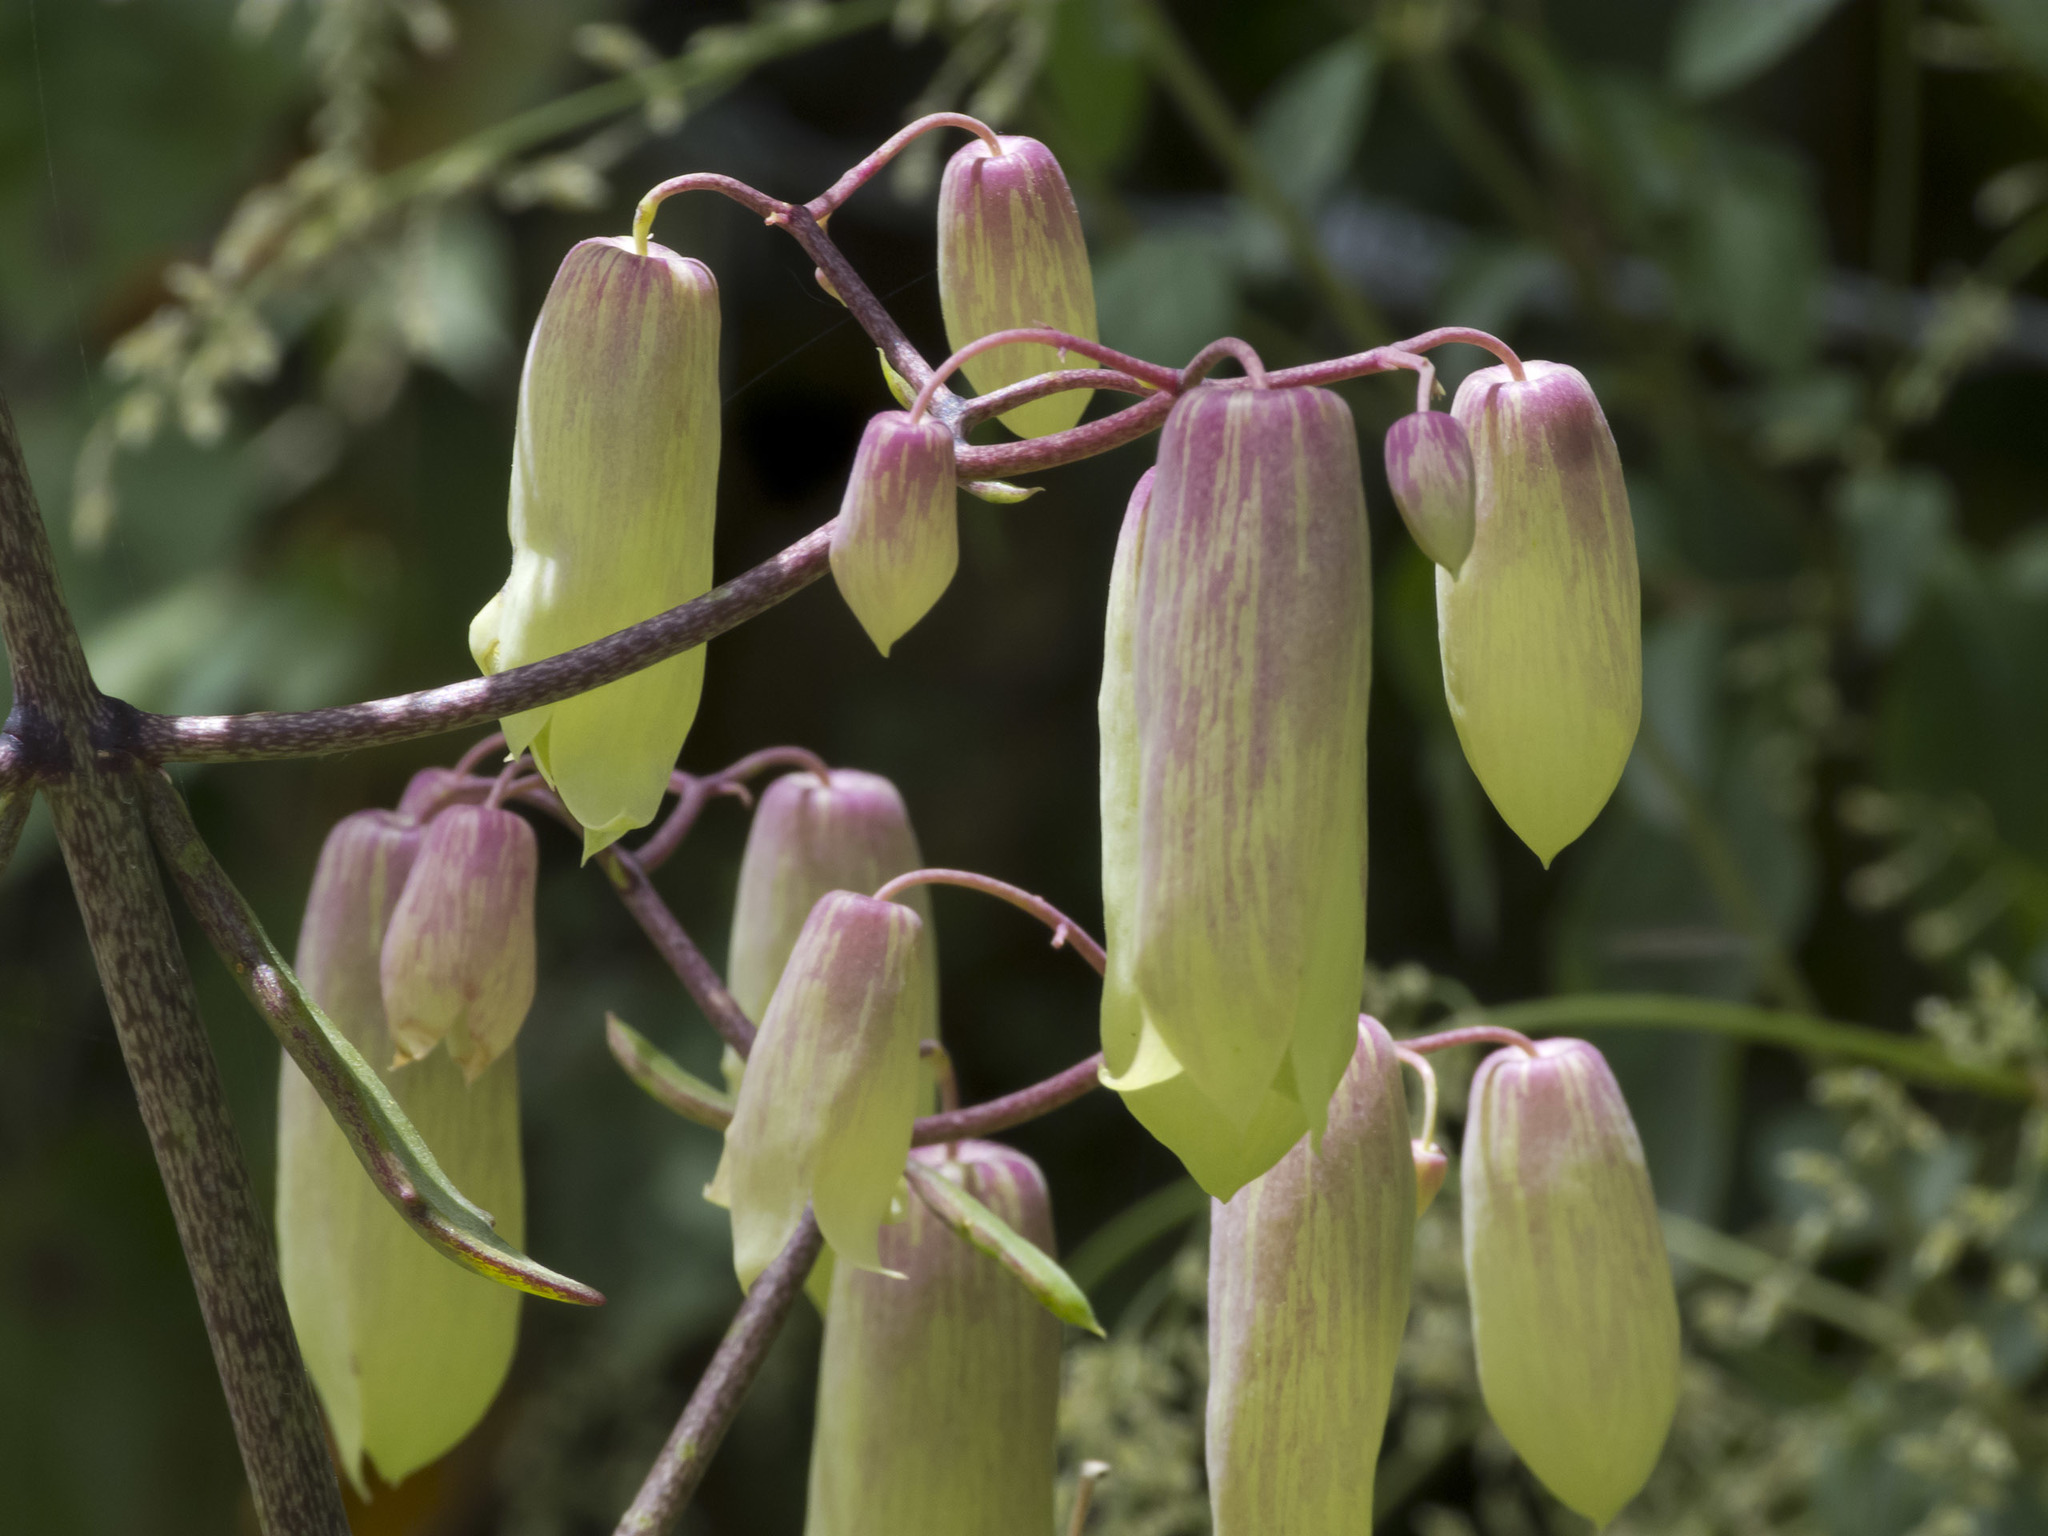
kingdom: Plantae
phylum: Tracheophyta
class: Magnoliopsida
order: Saxifragales
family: Crassulaceae
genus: Kalanchoe
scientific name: Kalanchoe pinnata
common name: Cathedral bells
